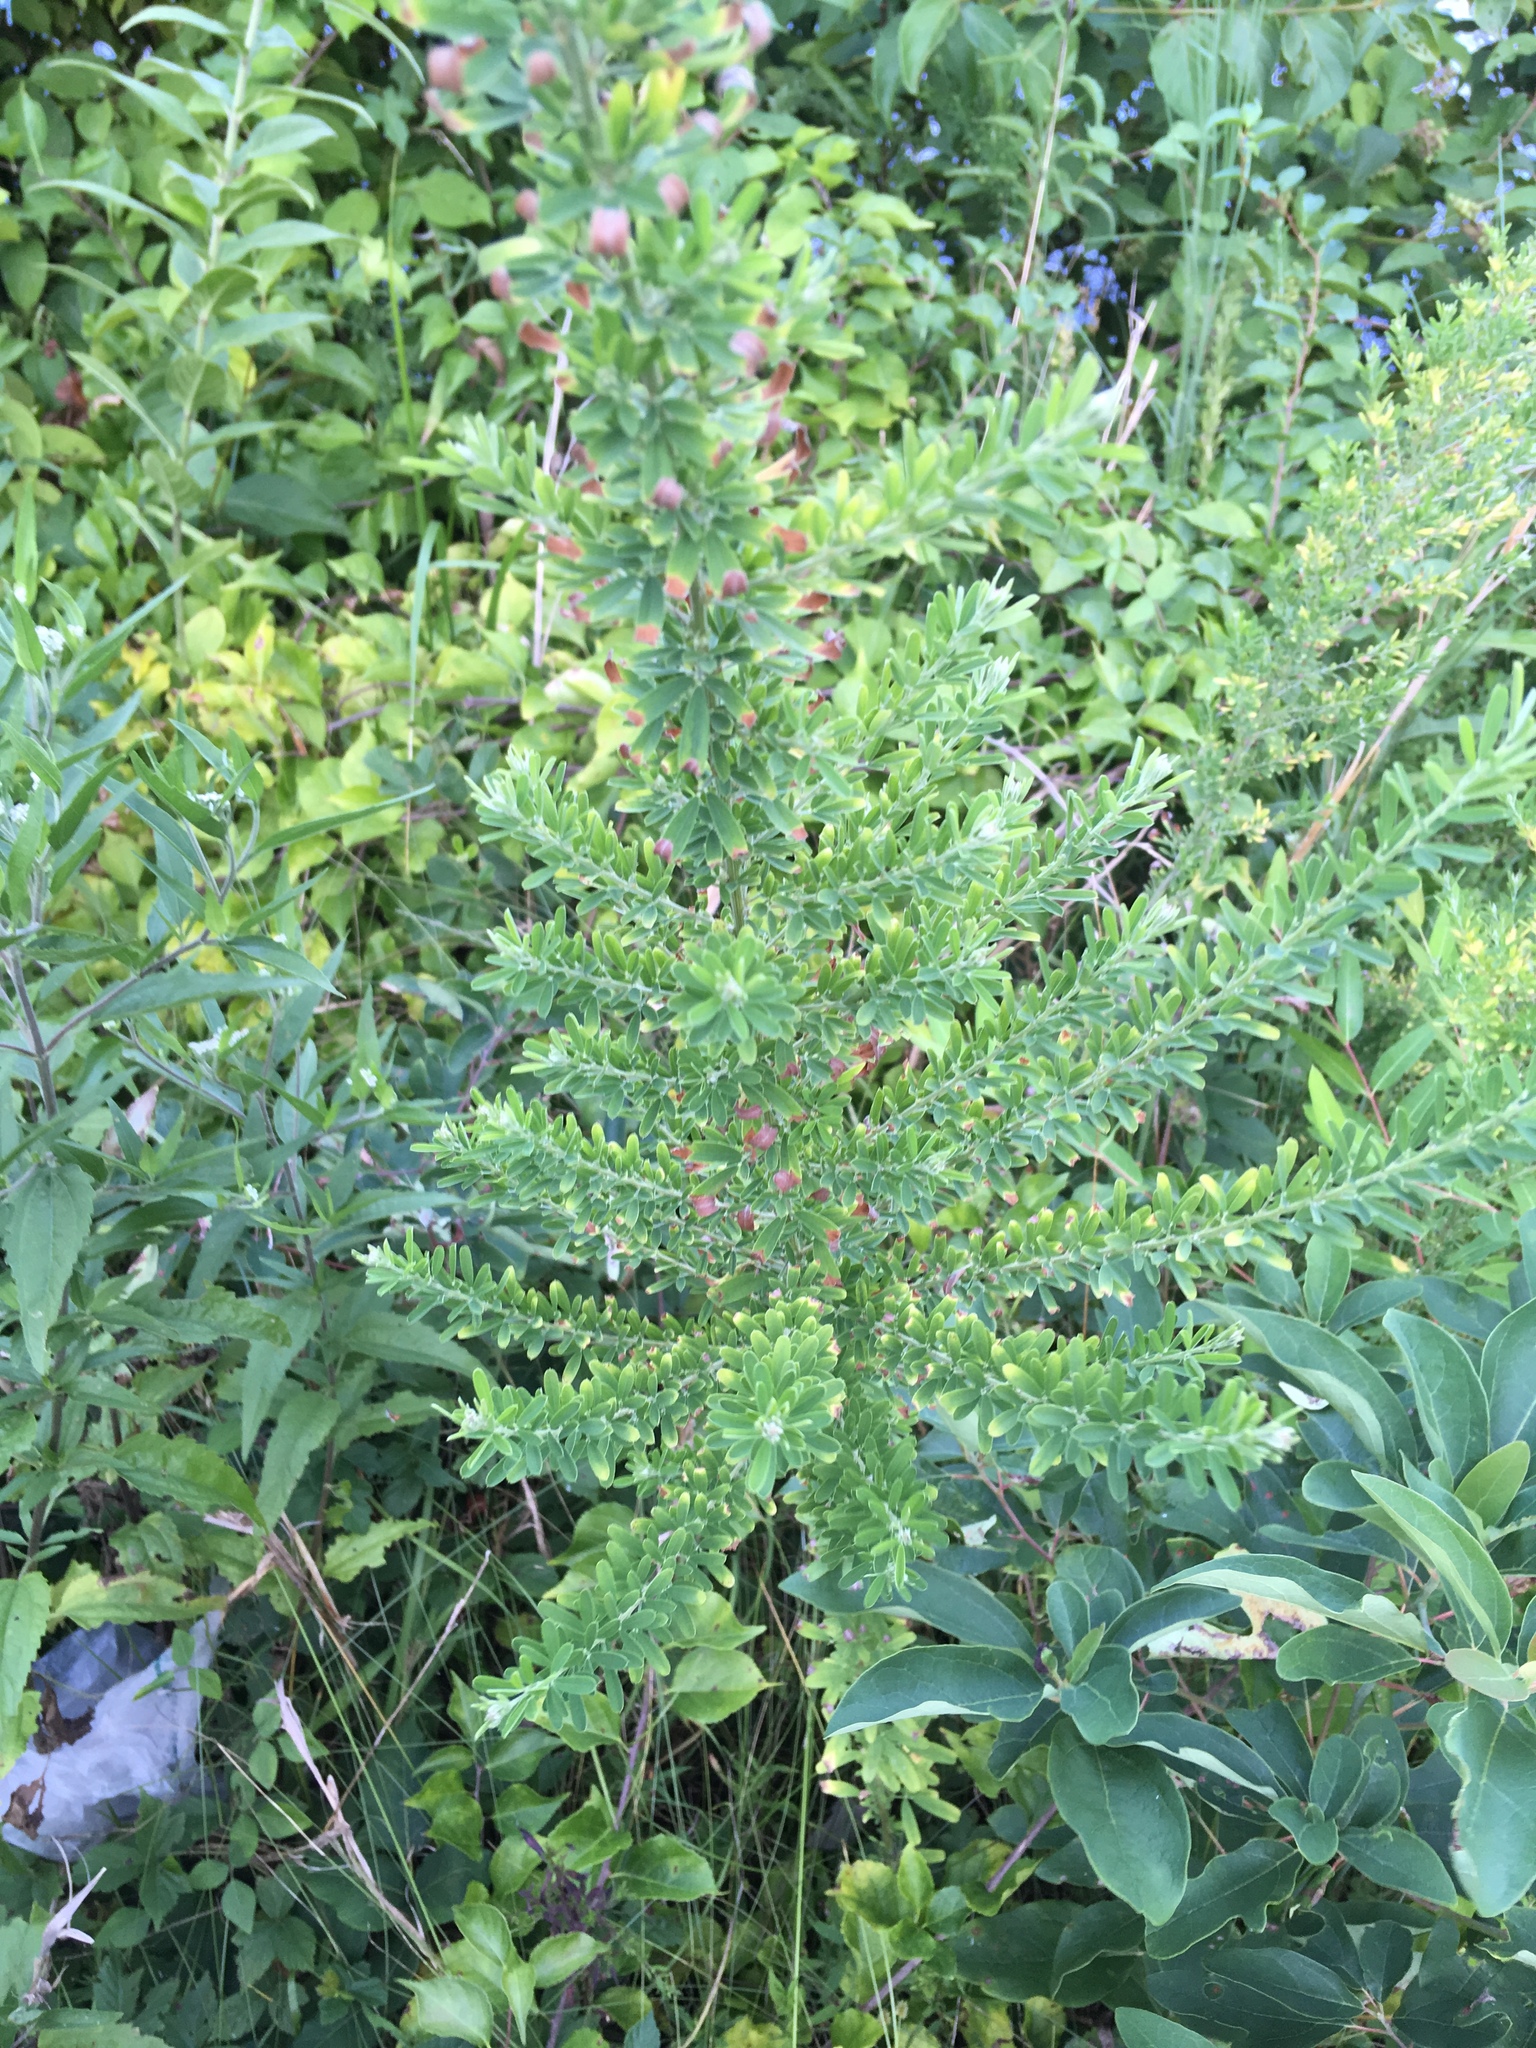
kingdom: Plantae
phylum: Tracheophyta
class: Magnoliopsida
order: Fabales
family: Fabaceae
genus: Lespedeza
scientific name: Lespedeza cuneata
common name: Chinese bush-clover
